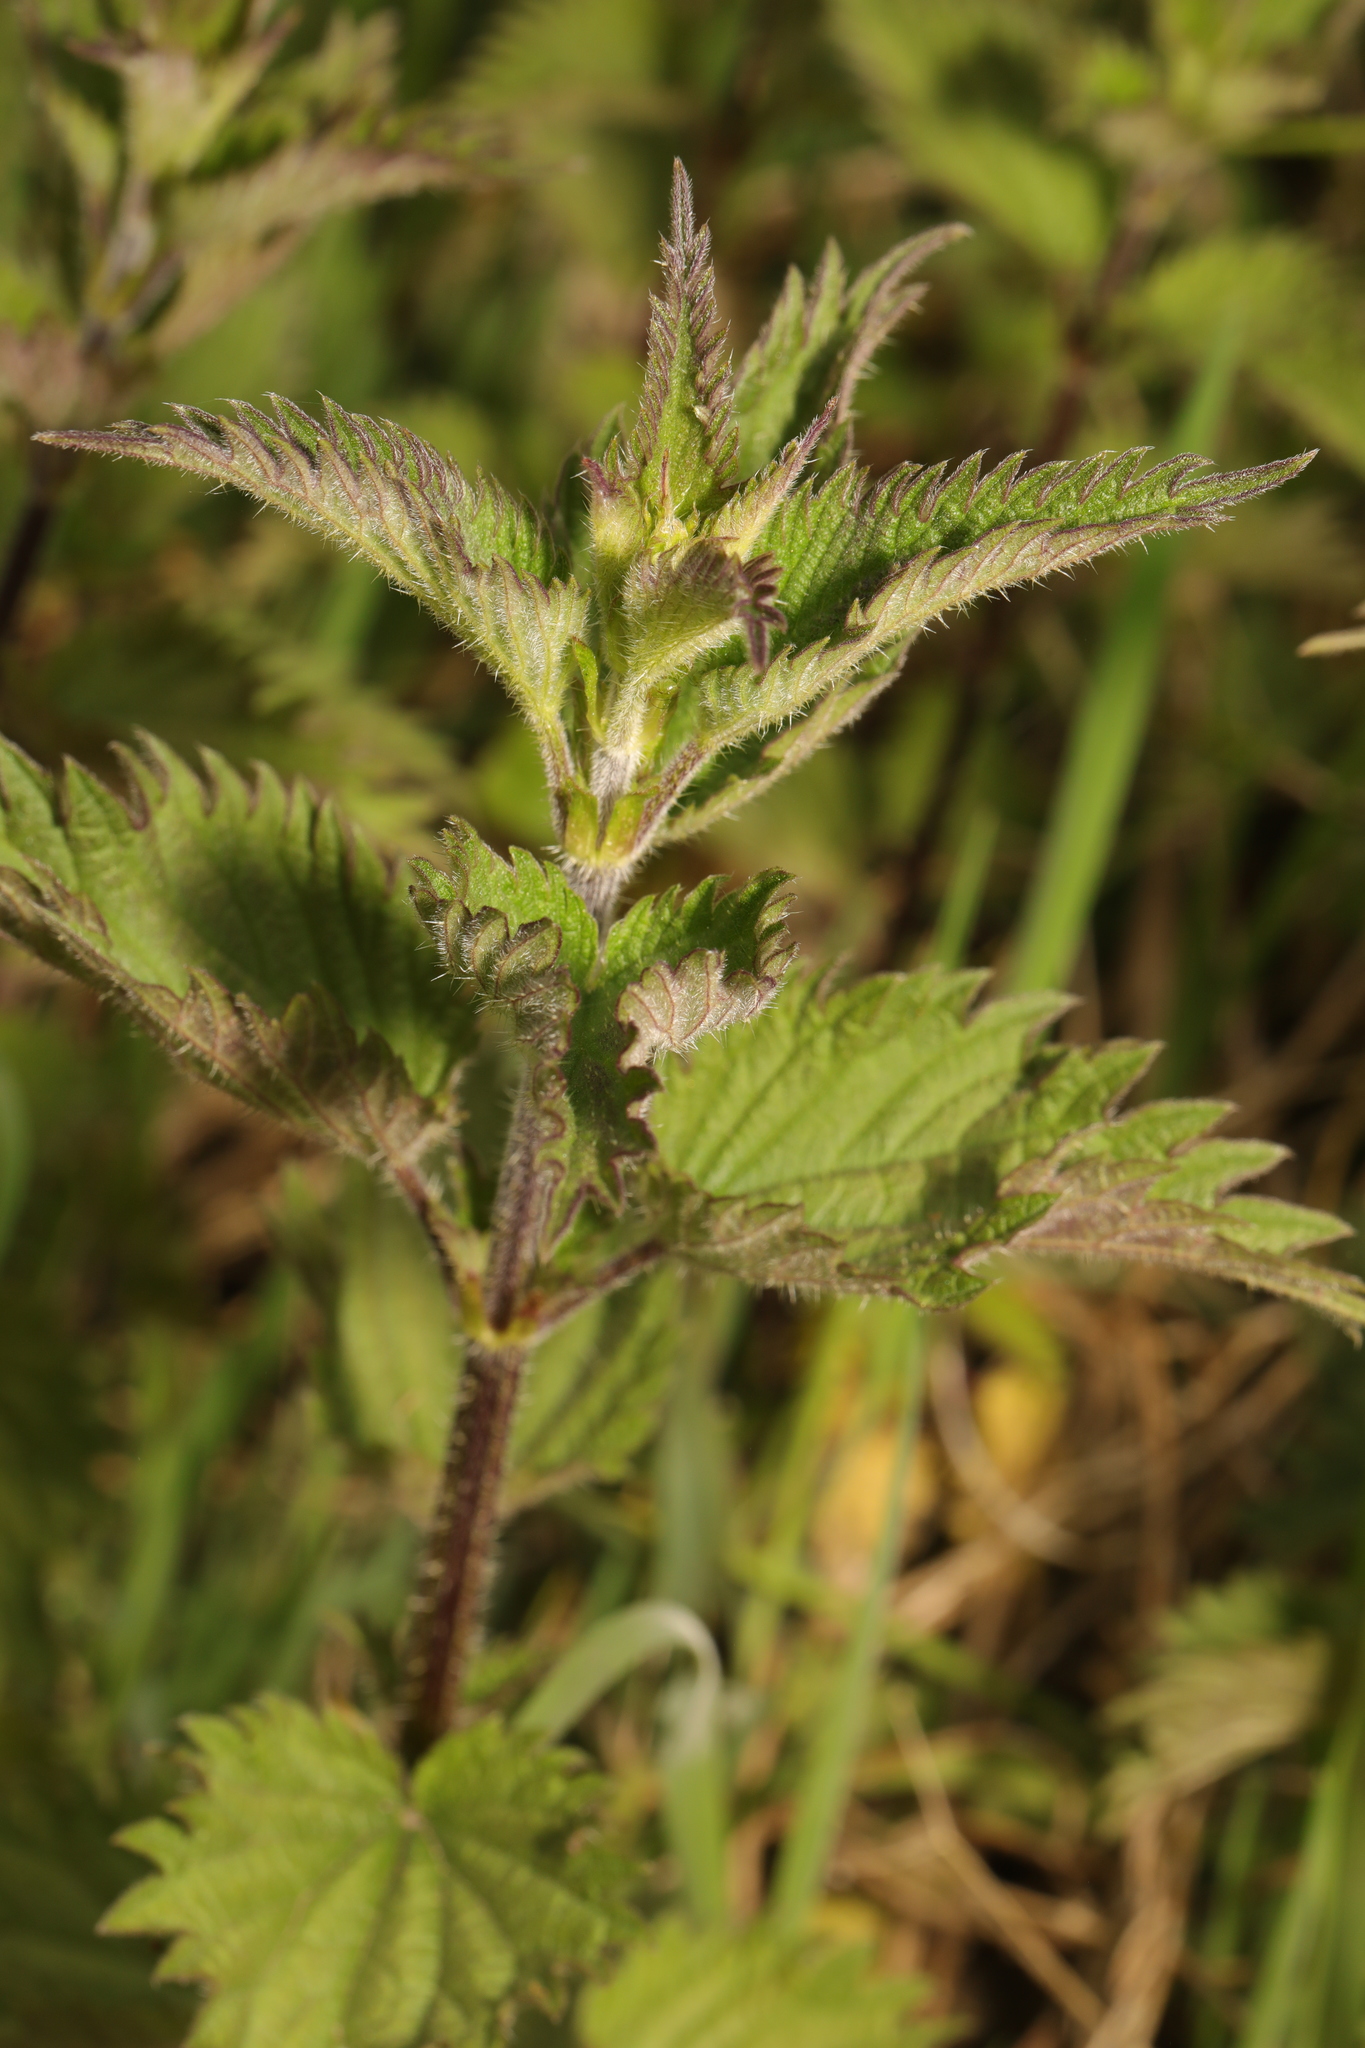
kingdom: Plantae
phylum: Tracheophyta
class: Magnoliopsida
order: Rosales
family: Urticaceae
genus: Urtica
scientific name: Urtica dioica
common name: Common nettle
